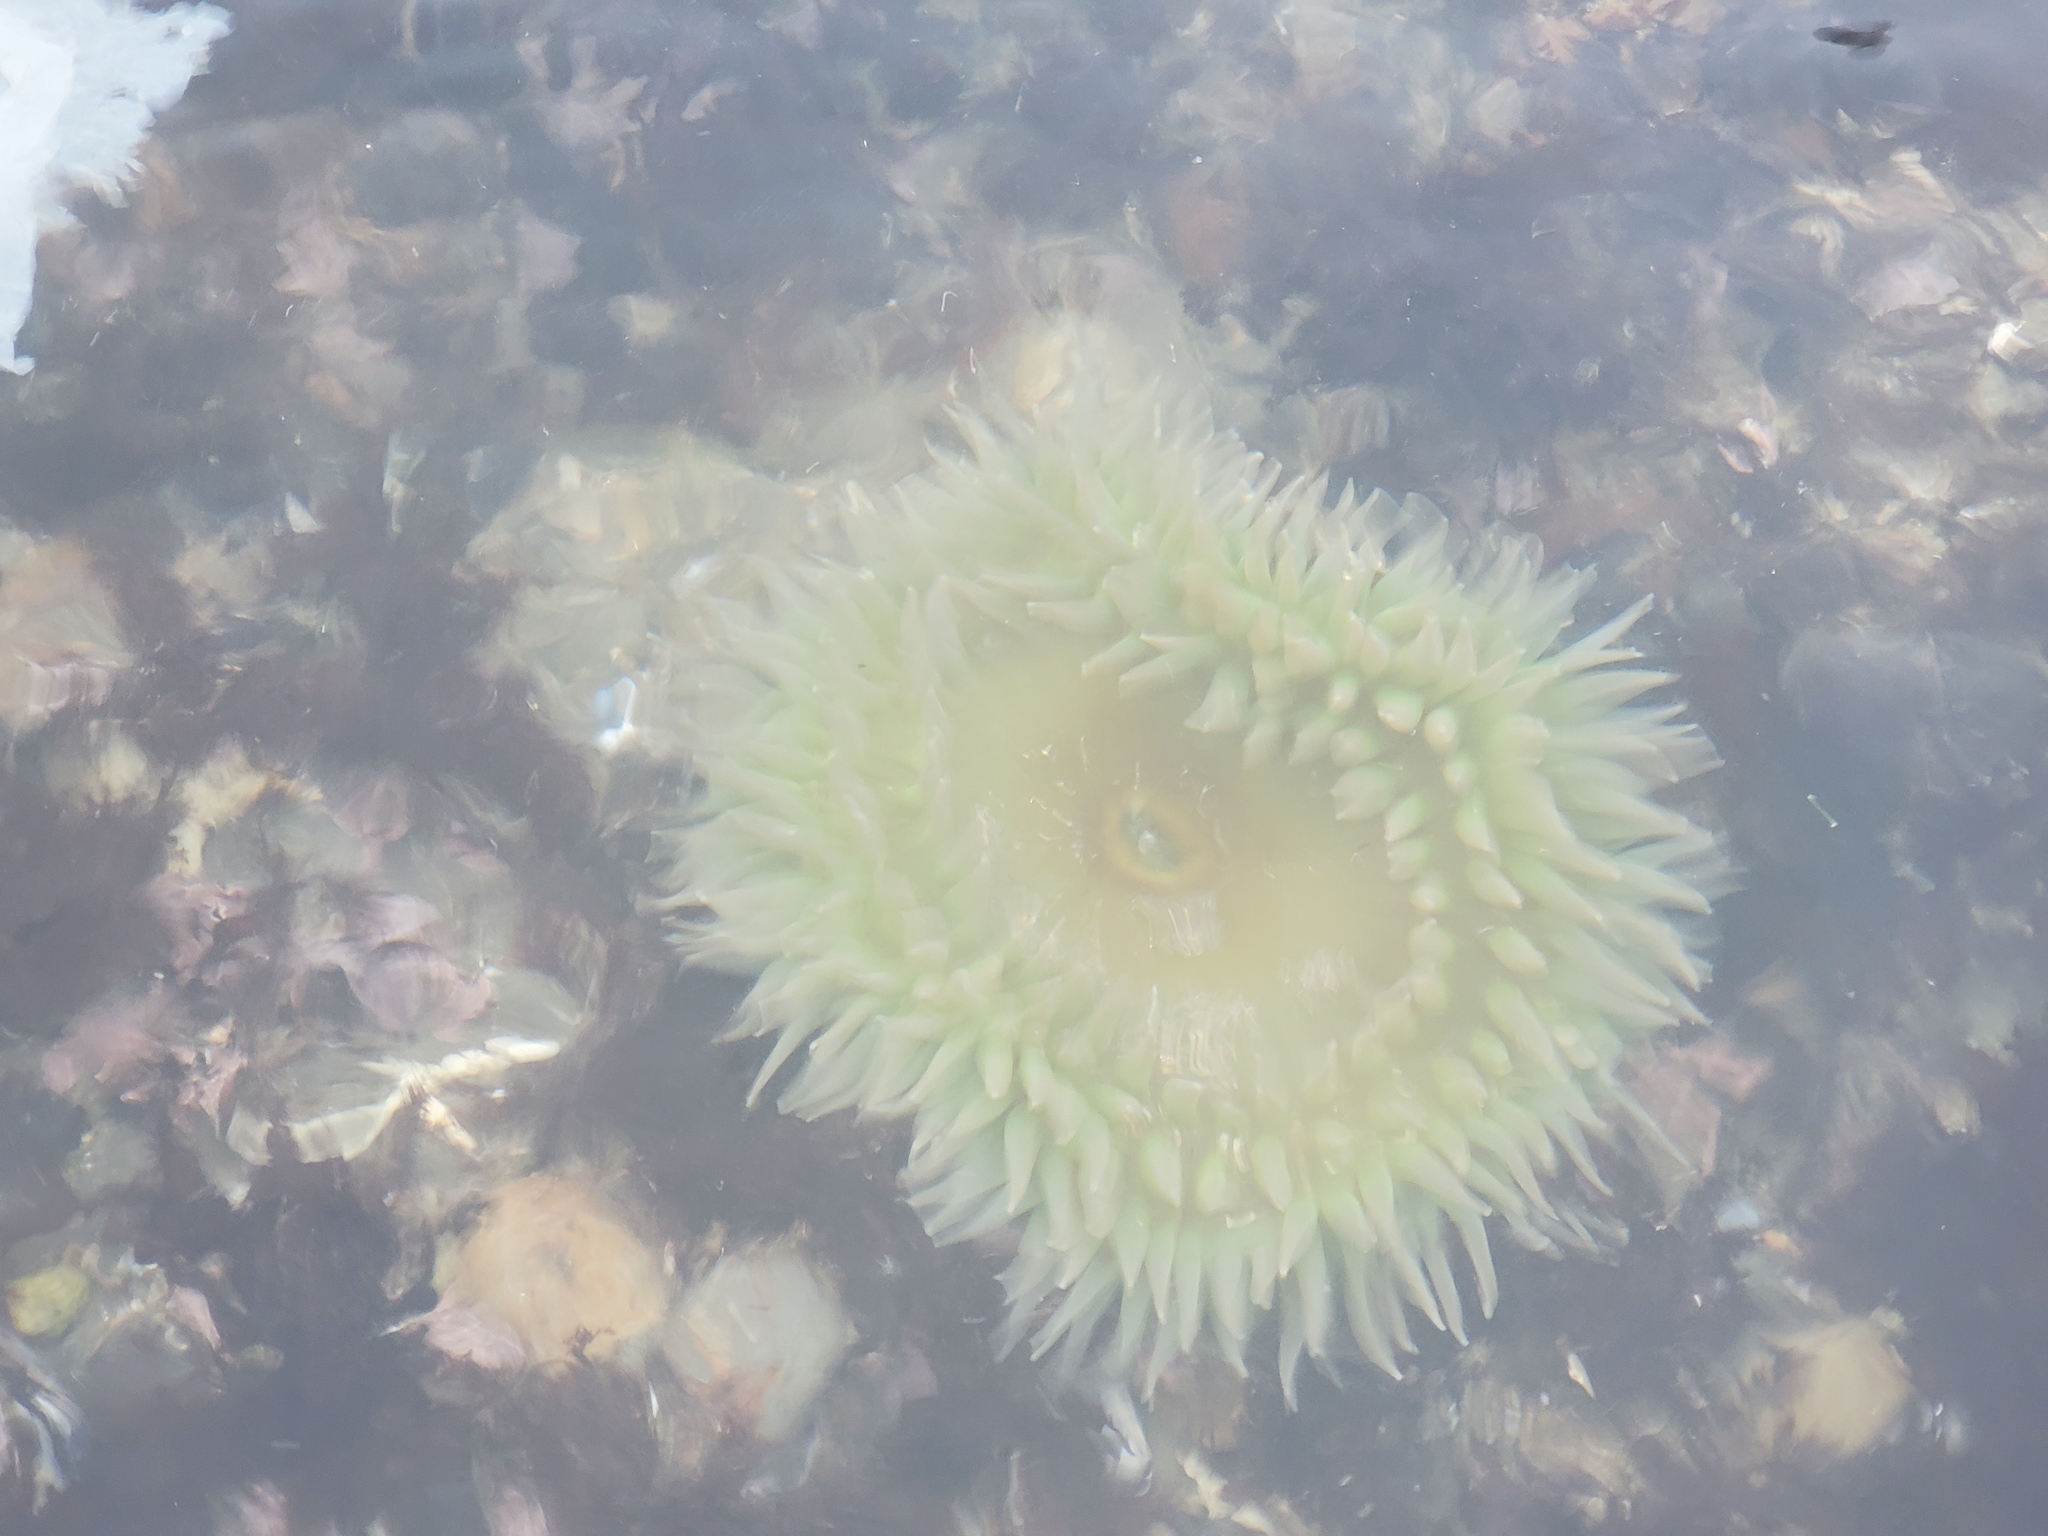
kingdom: Animalia
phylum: Cnidaria
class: Anthozoa
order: Actiniaria
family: Actiniidae
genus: Anthopleura
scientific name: Anthopleura xanthogrammica
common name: Giant green anemone
